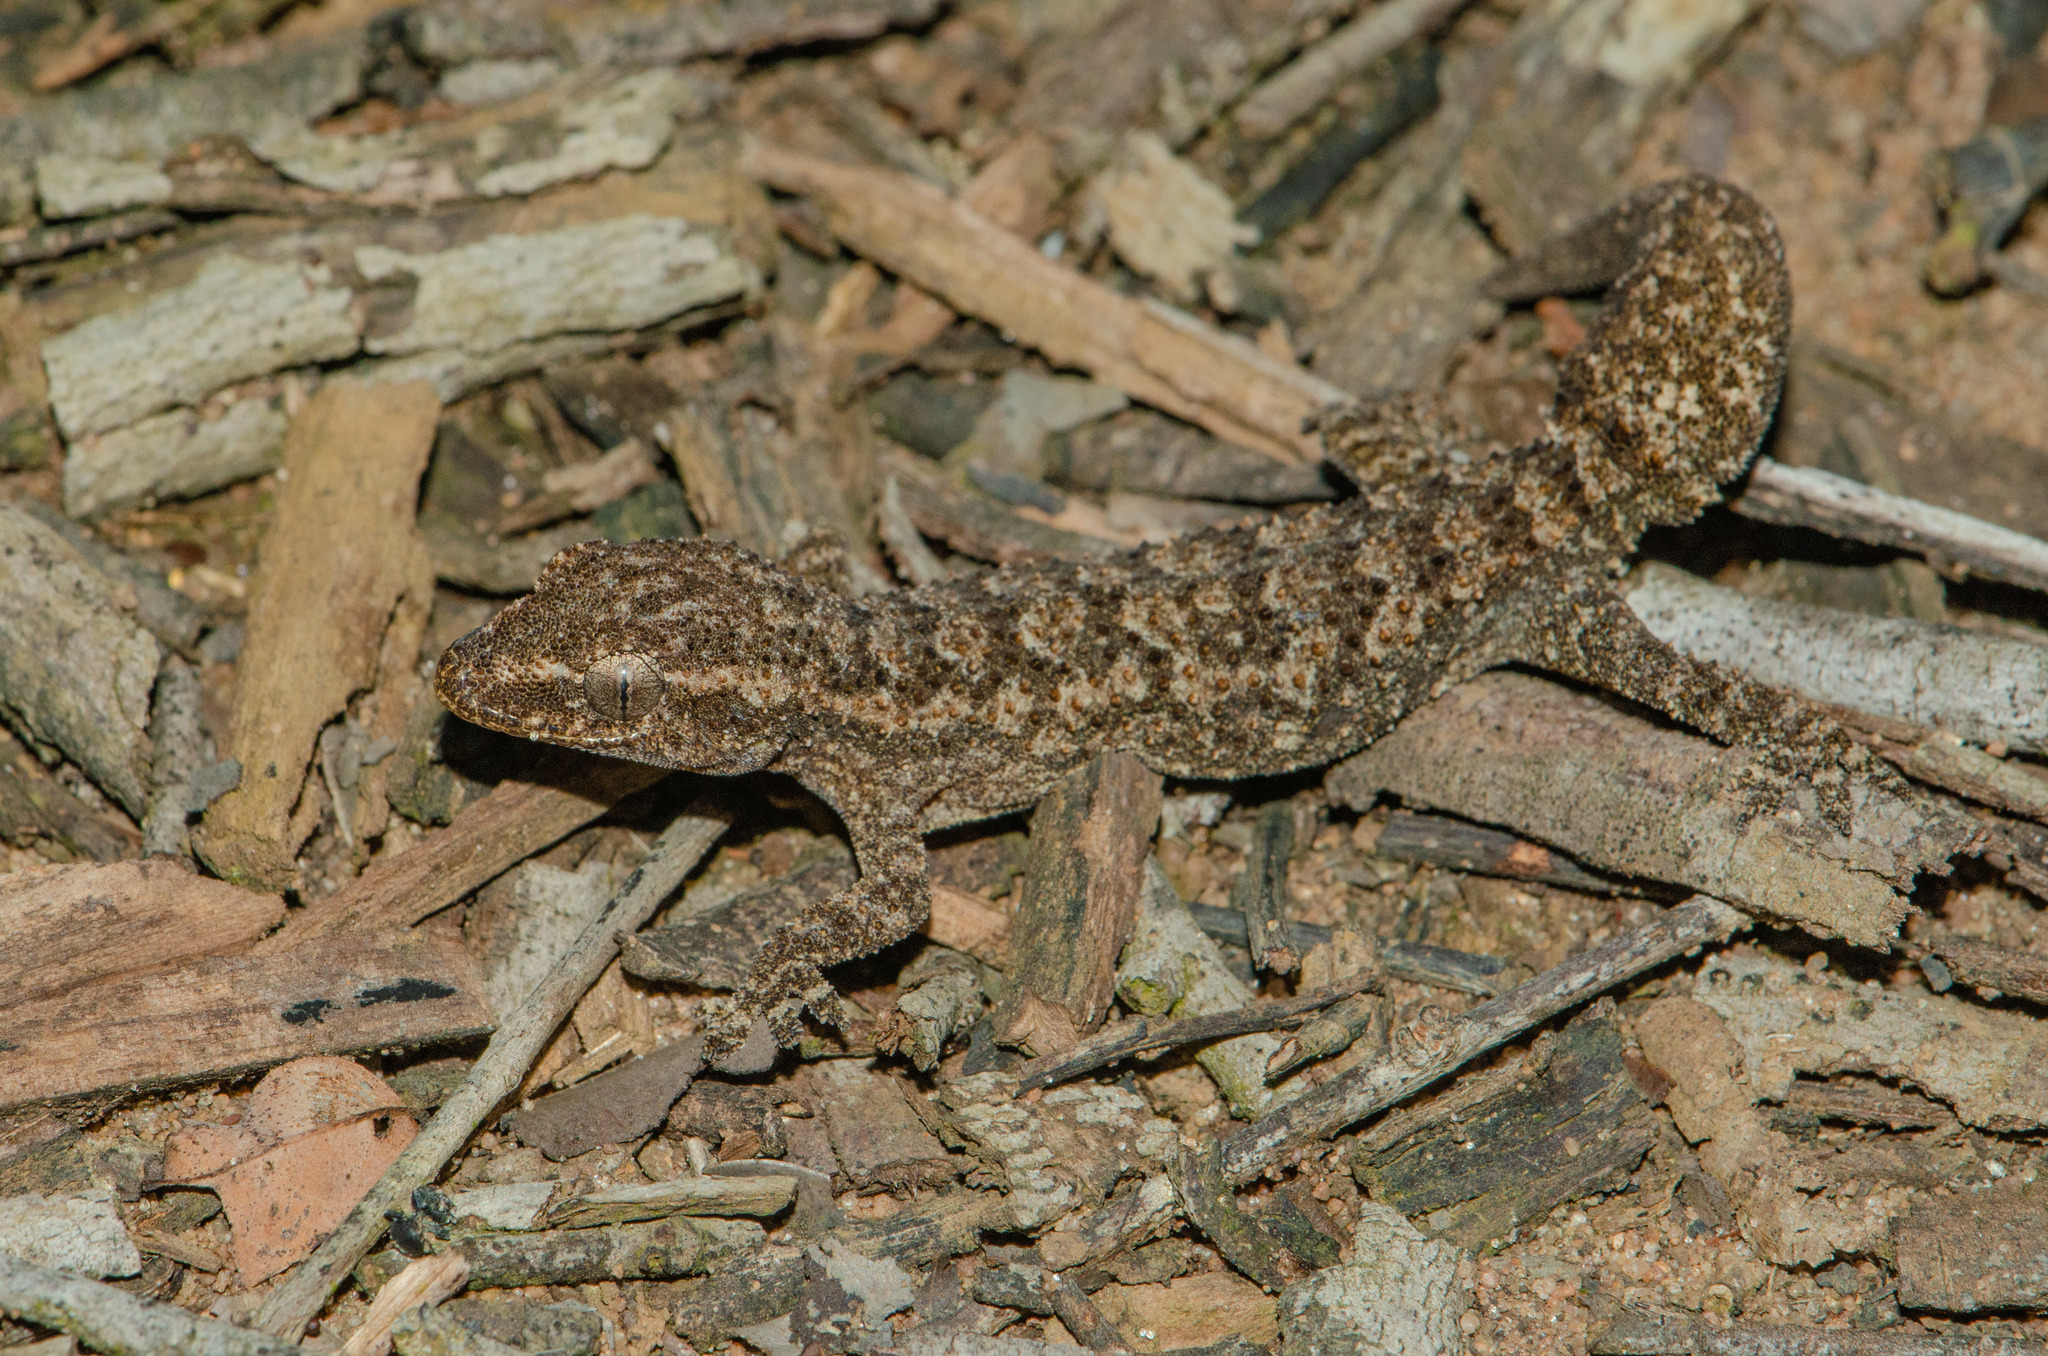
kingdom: Animalia
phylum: Chordata
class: Squamata
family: Gekkonidae
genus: Hemidactylus
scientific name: Hemidactylus brasilianus
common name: Amaral's brazilian gecko
